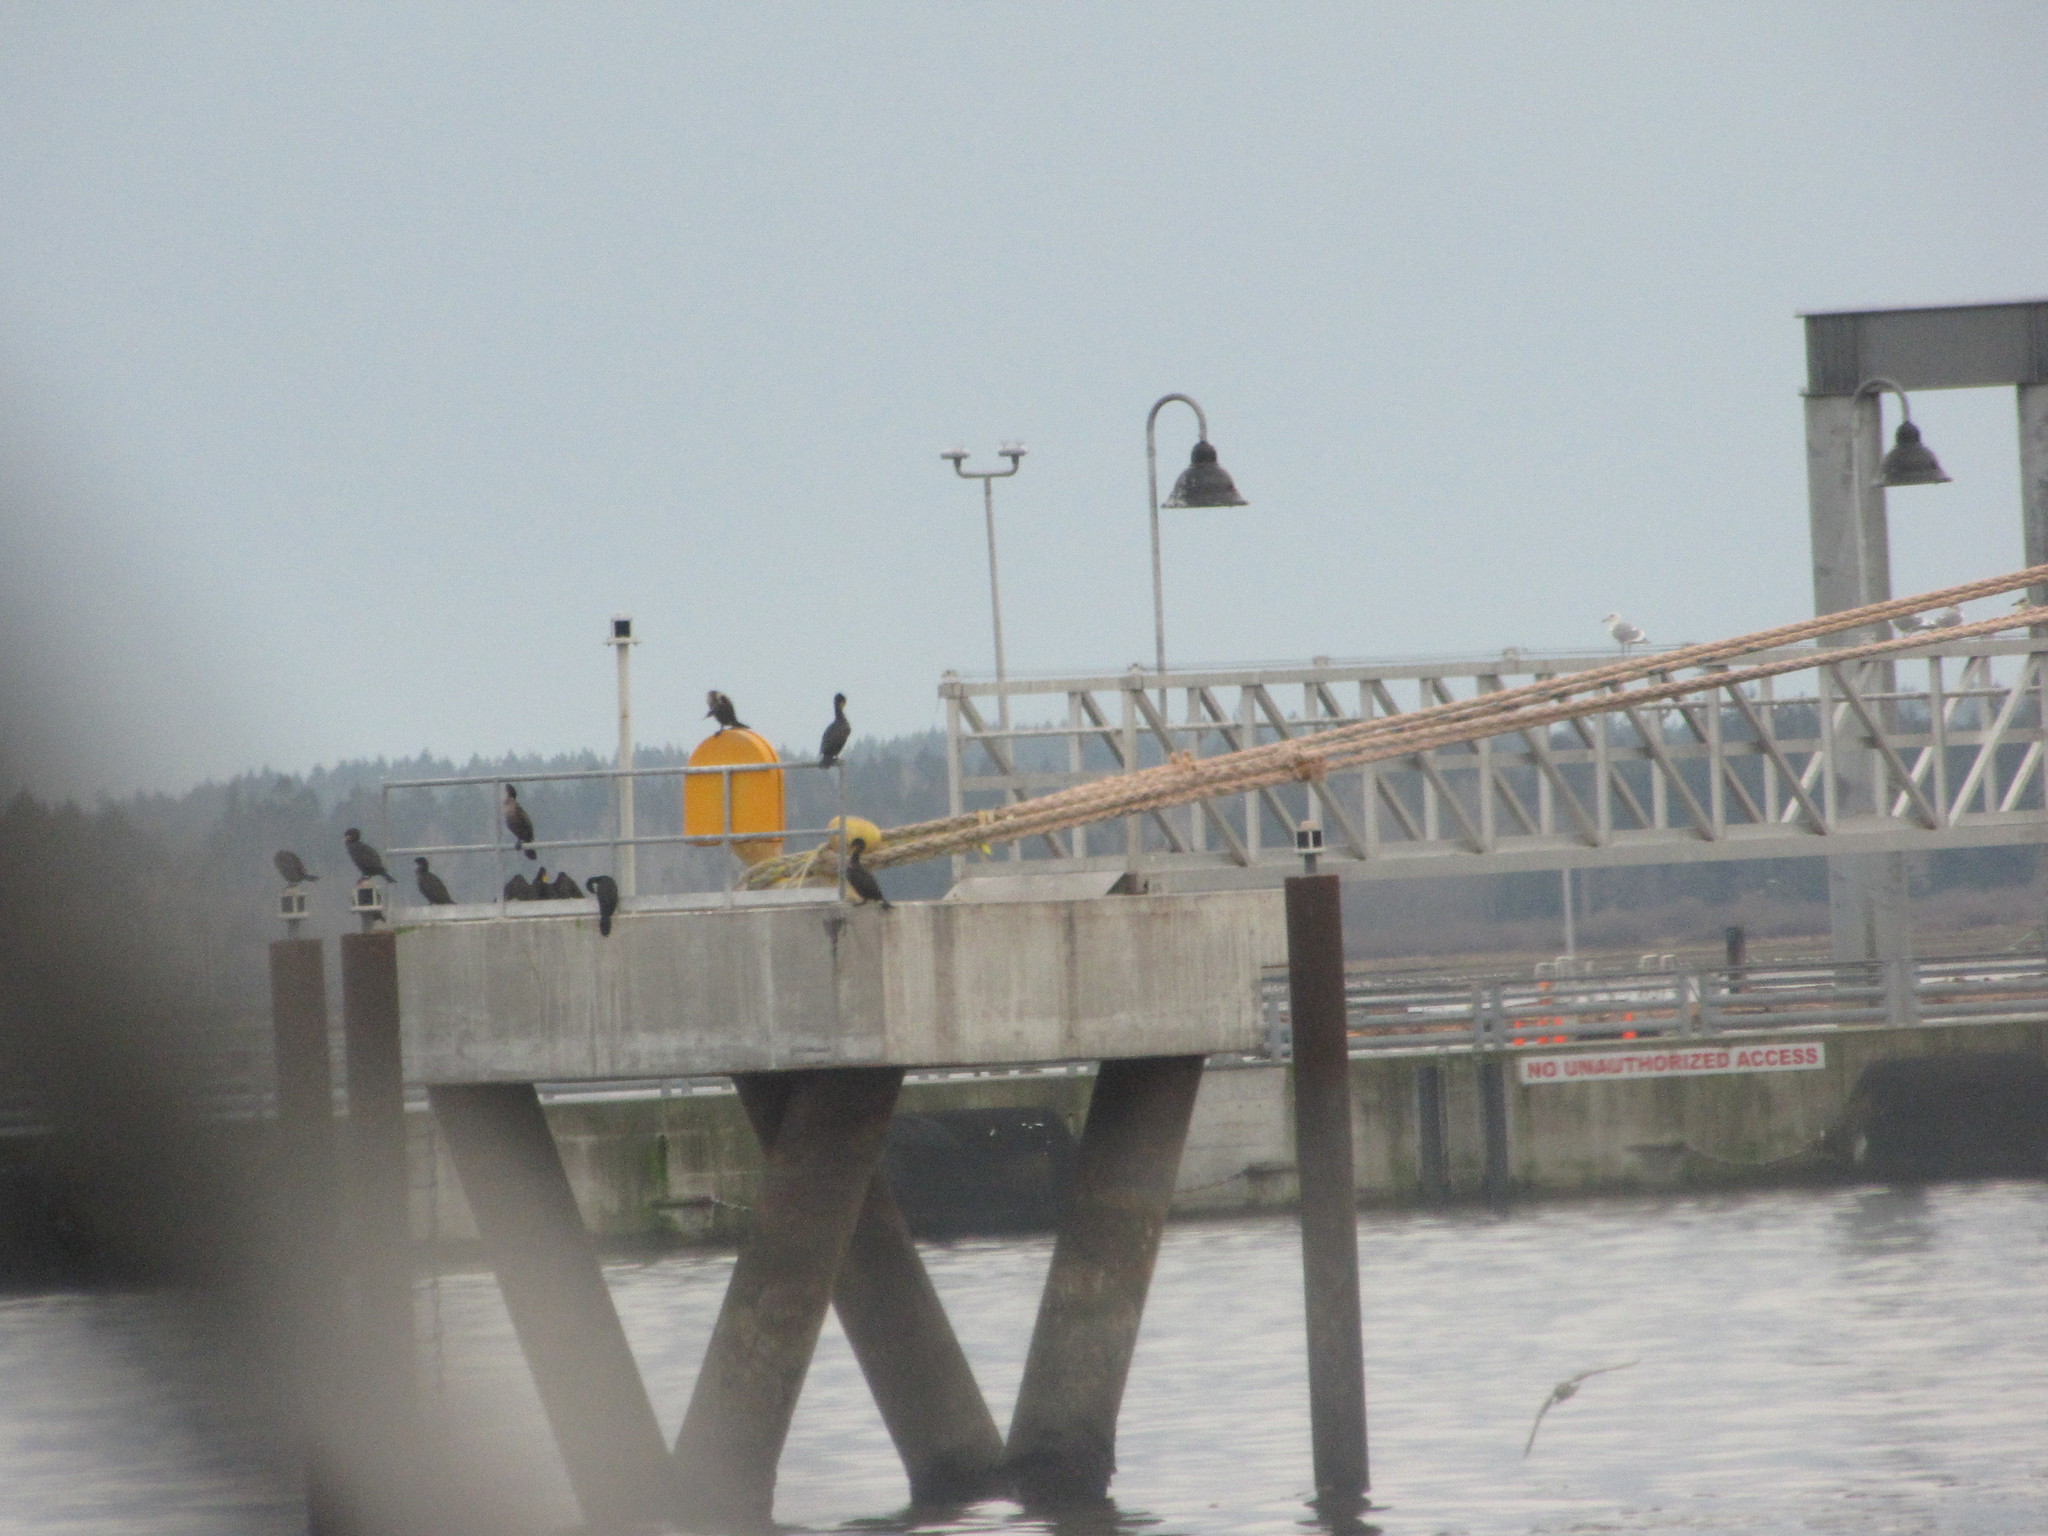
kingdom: Animalia
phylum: Chordata
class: Aves
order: Suliformes
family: Phalacrocoracidae
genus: Phalacrocorax
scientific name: Phalacrocorax auritus
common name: Double-crested cormorant
